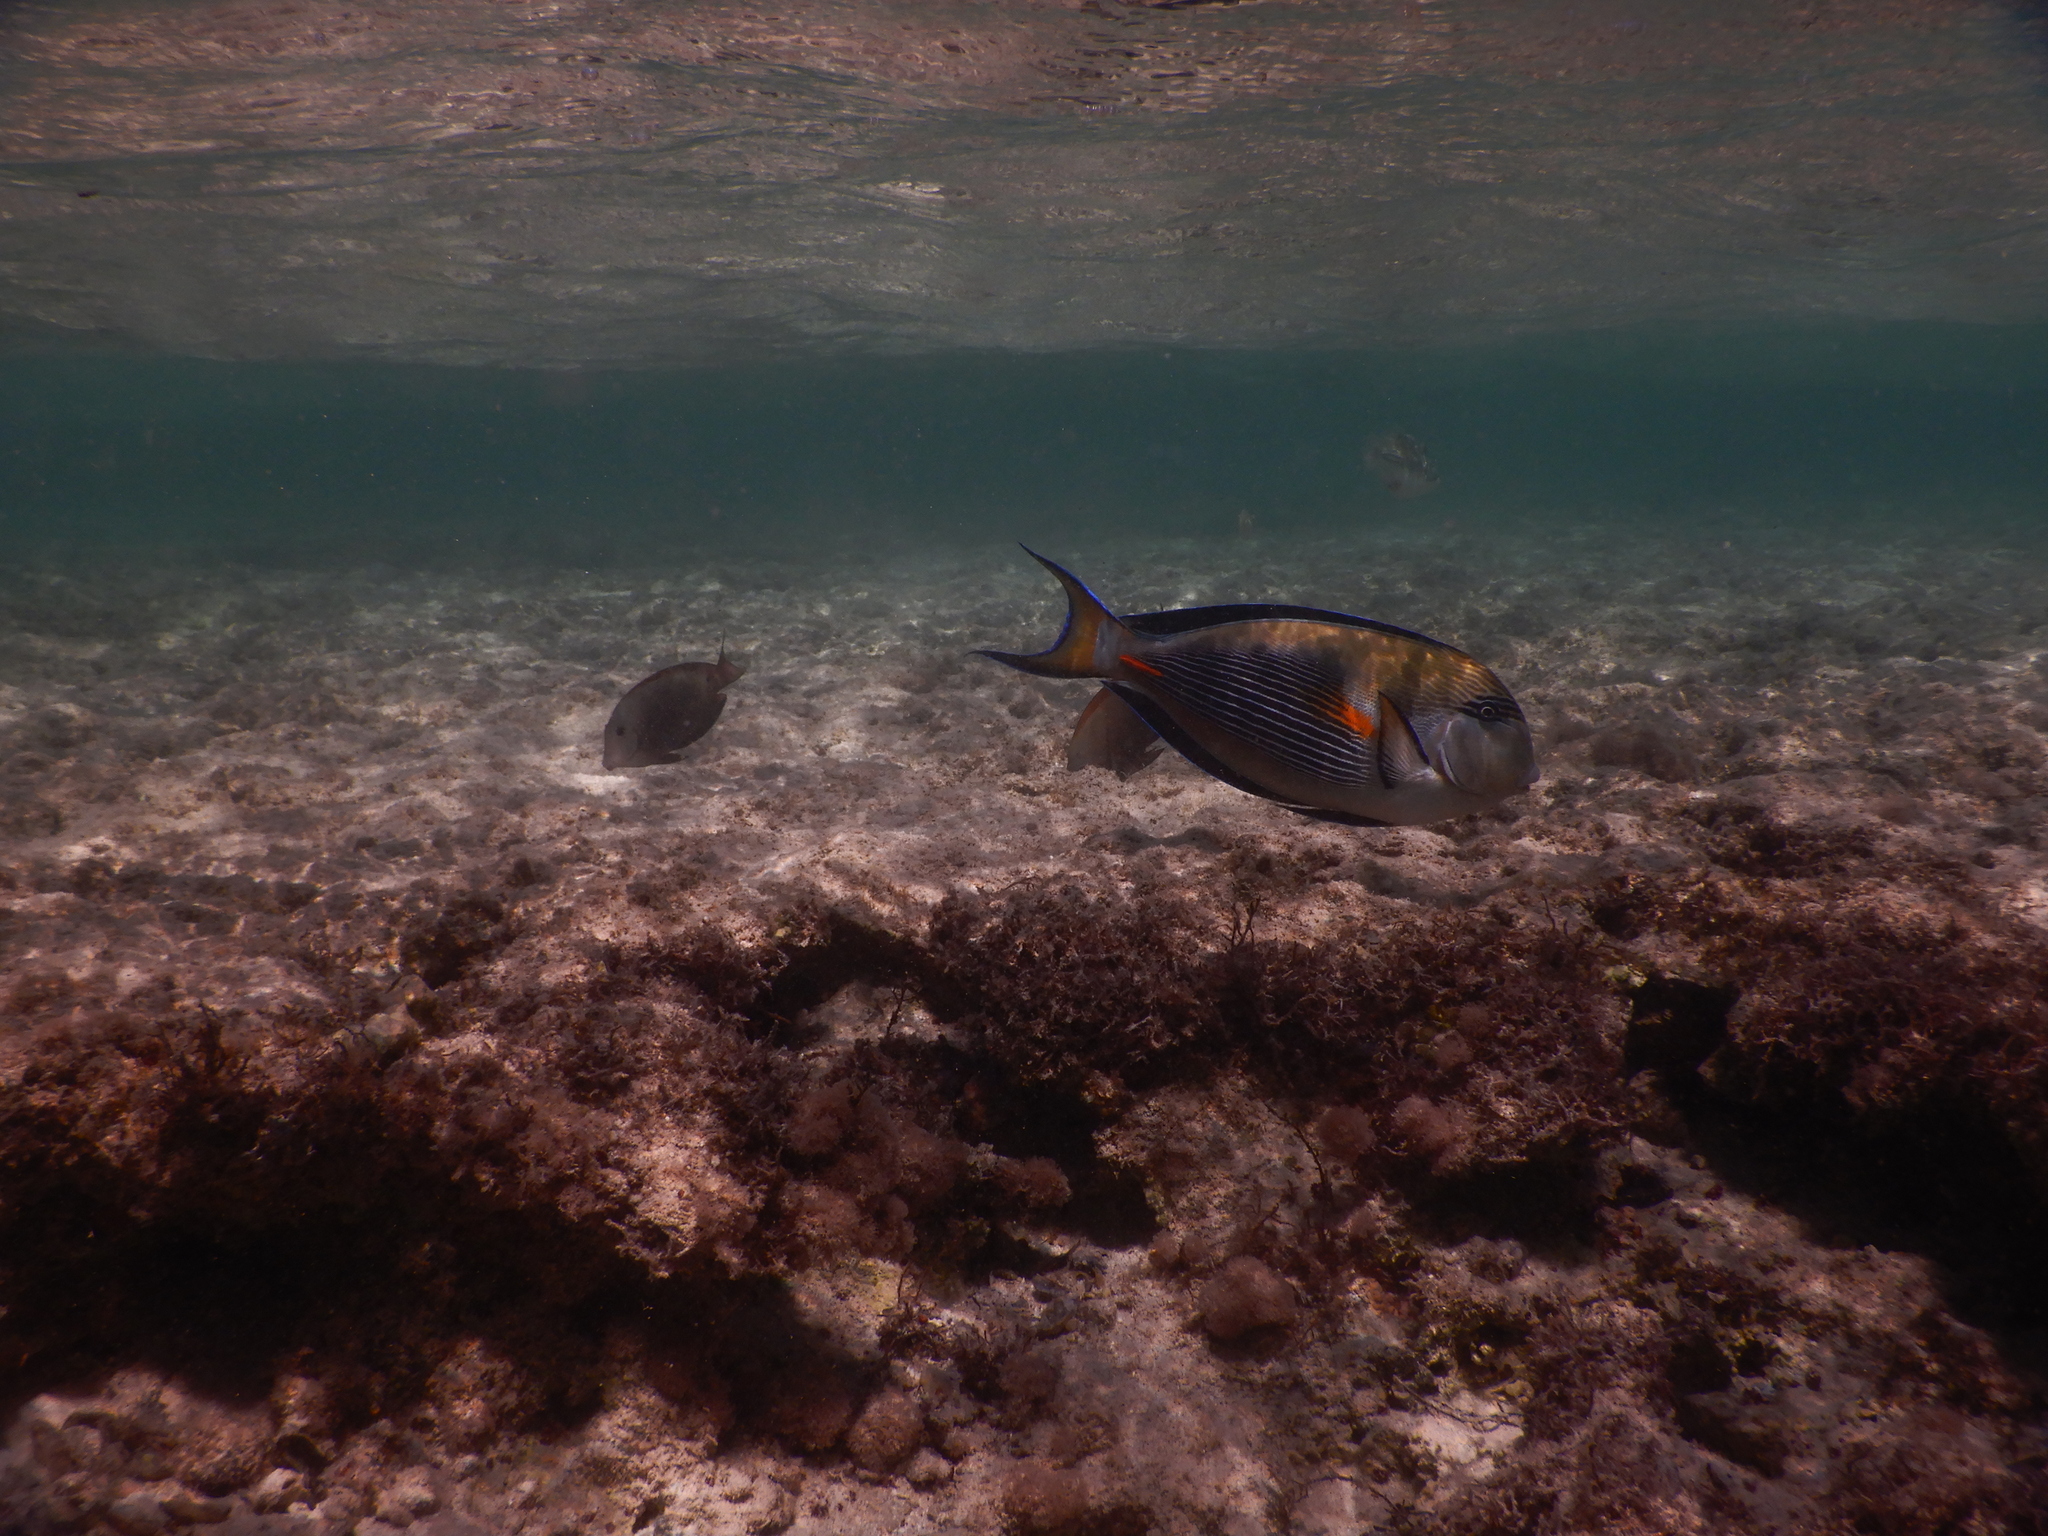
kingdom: Animalia
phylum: Chordata
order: Perciformes
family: Acanthuridae
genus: Acanthurus
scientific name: Acanthurus sohal
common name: Red sea surgeonfish
